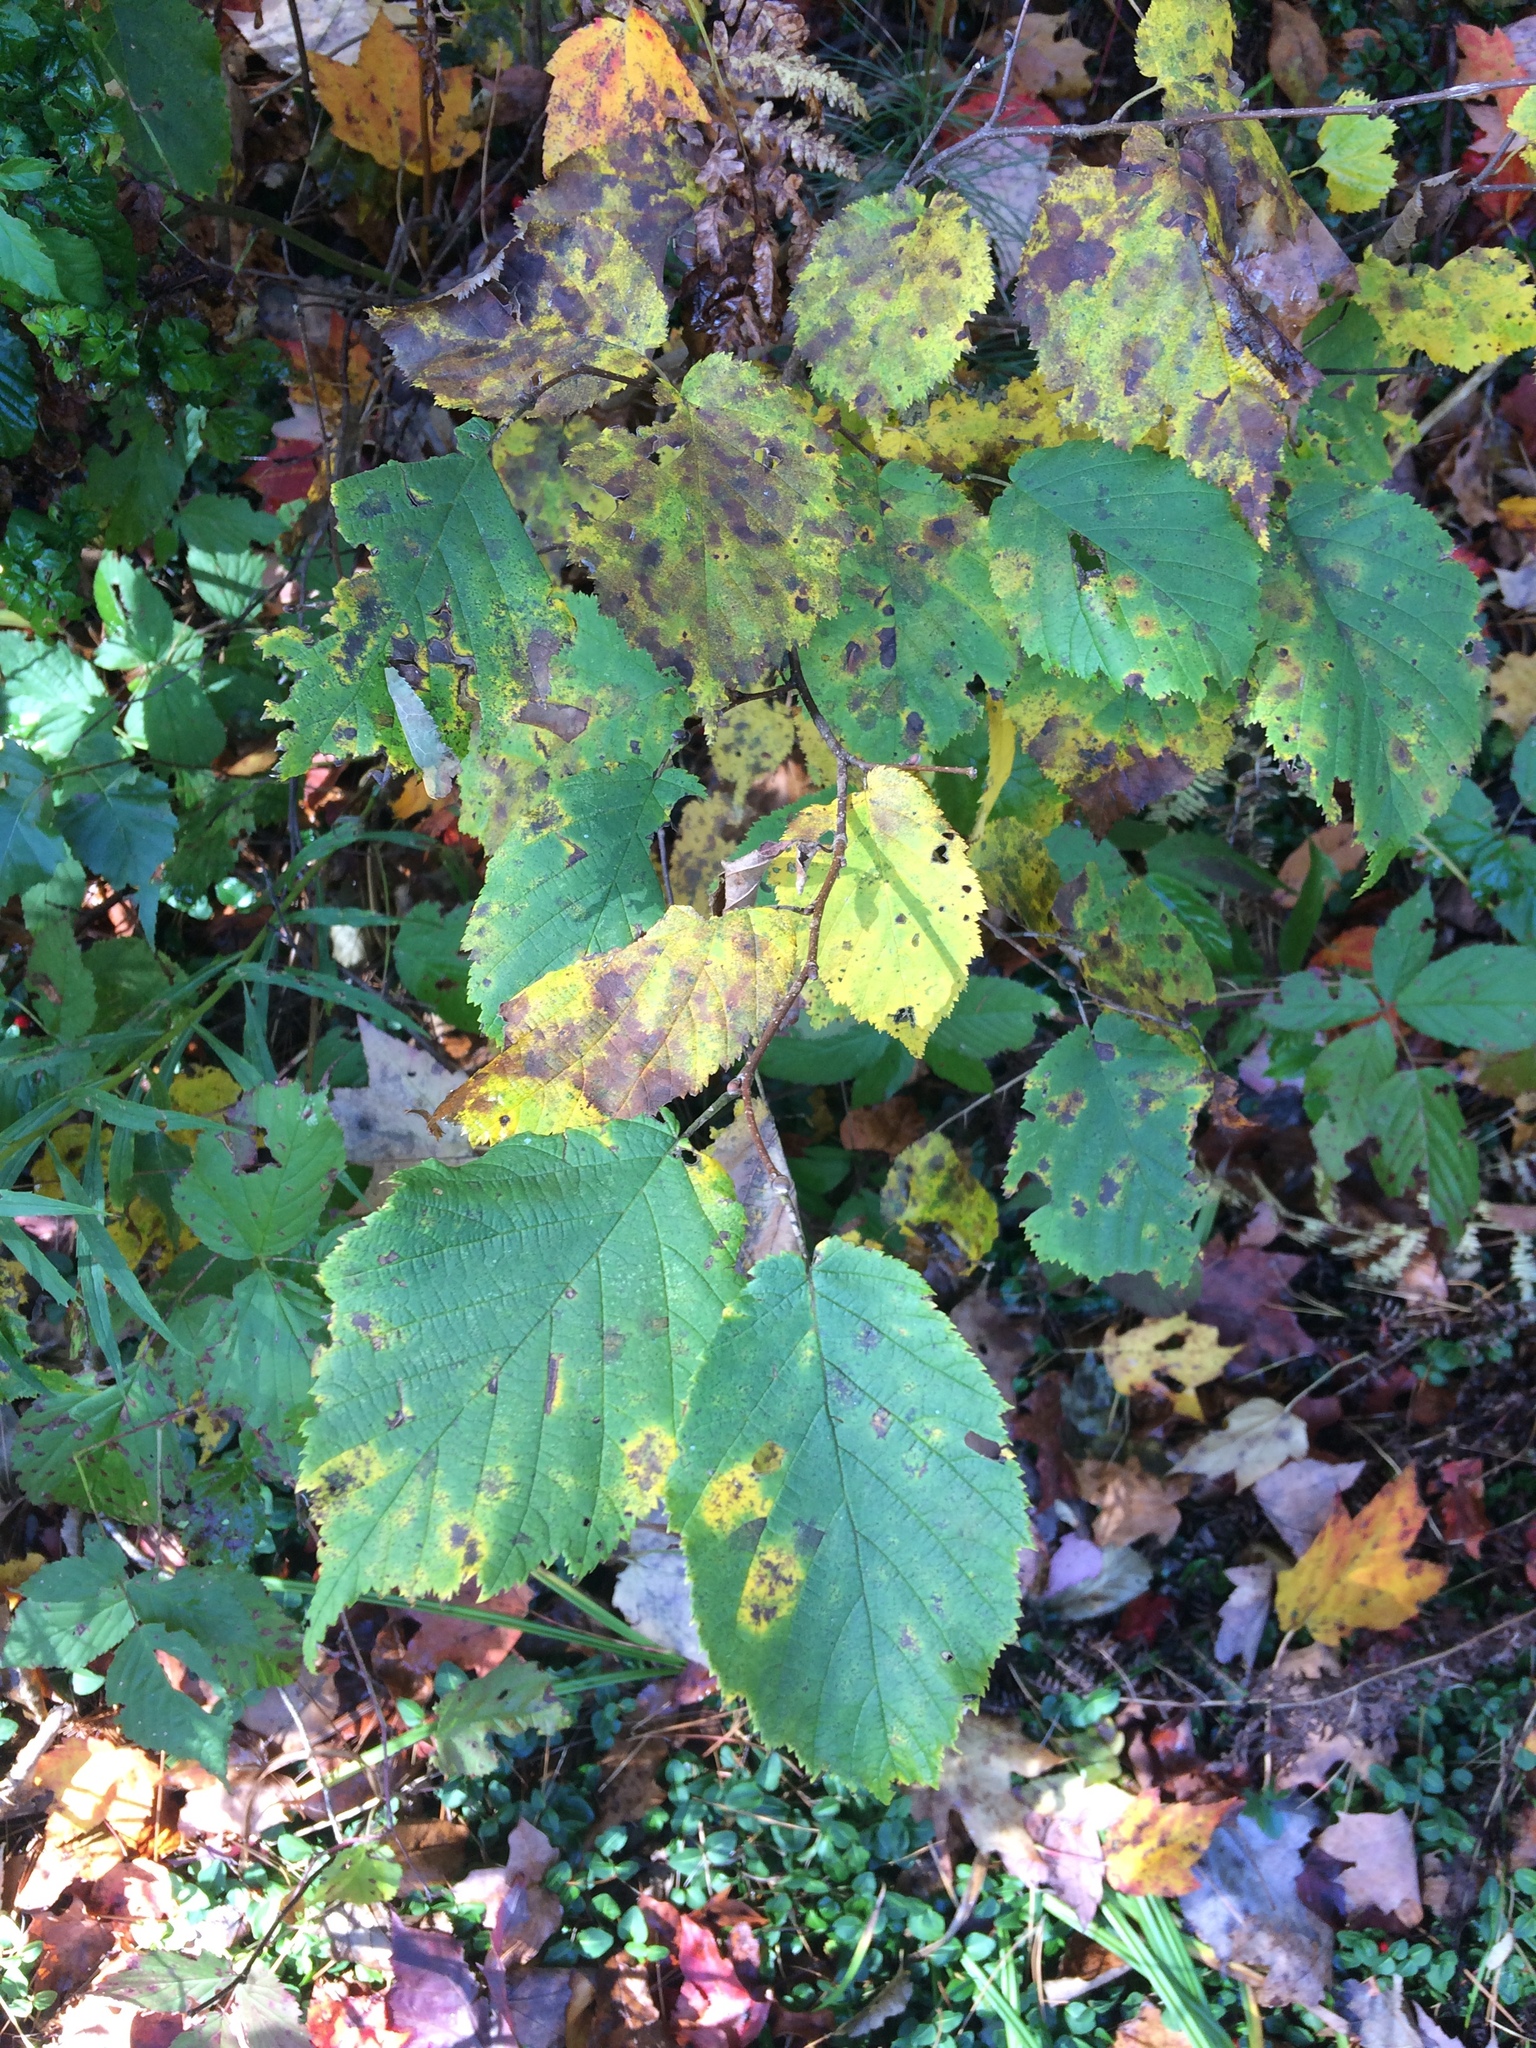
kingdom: Plantae
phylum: Tracheophyta
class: Magnoliopsida
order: Fagales
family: Betulaceae
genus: Corylus
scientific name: Corylus cornuta
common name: Beaked hazel
